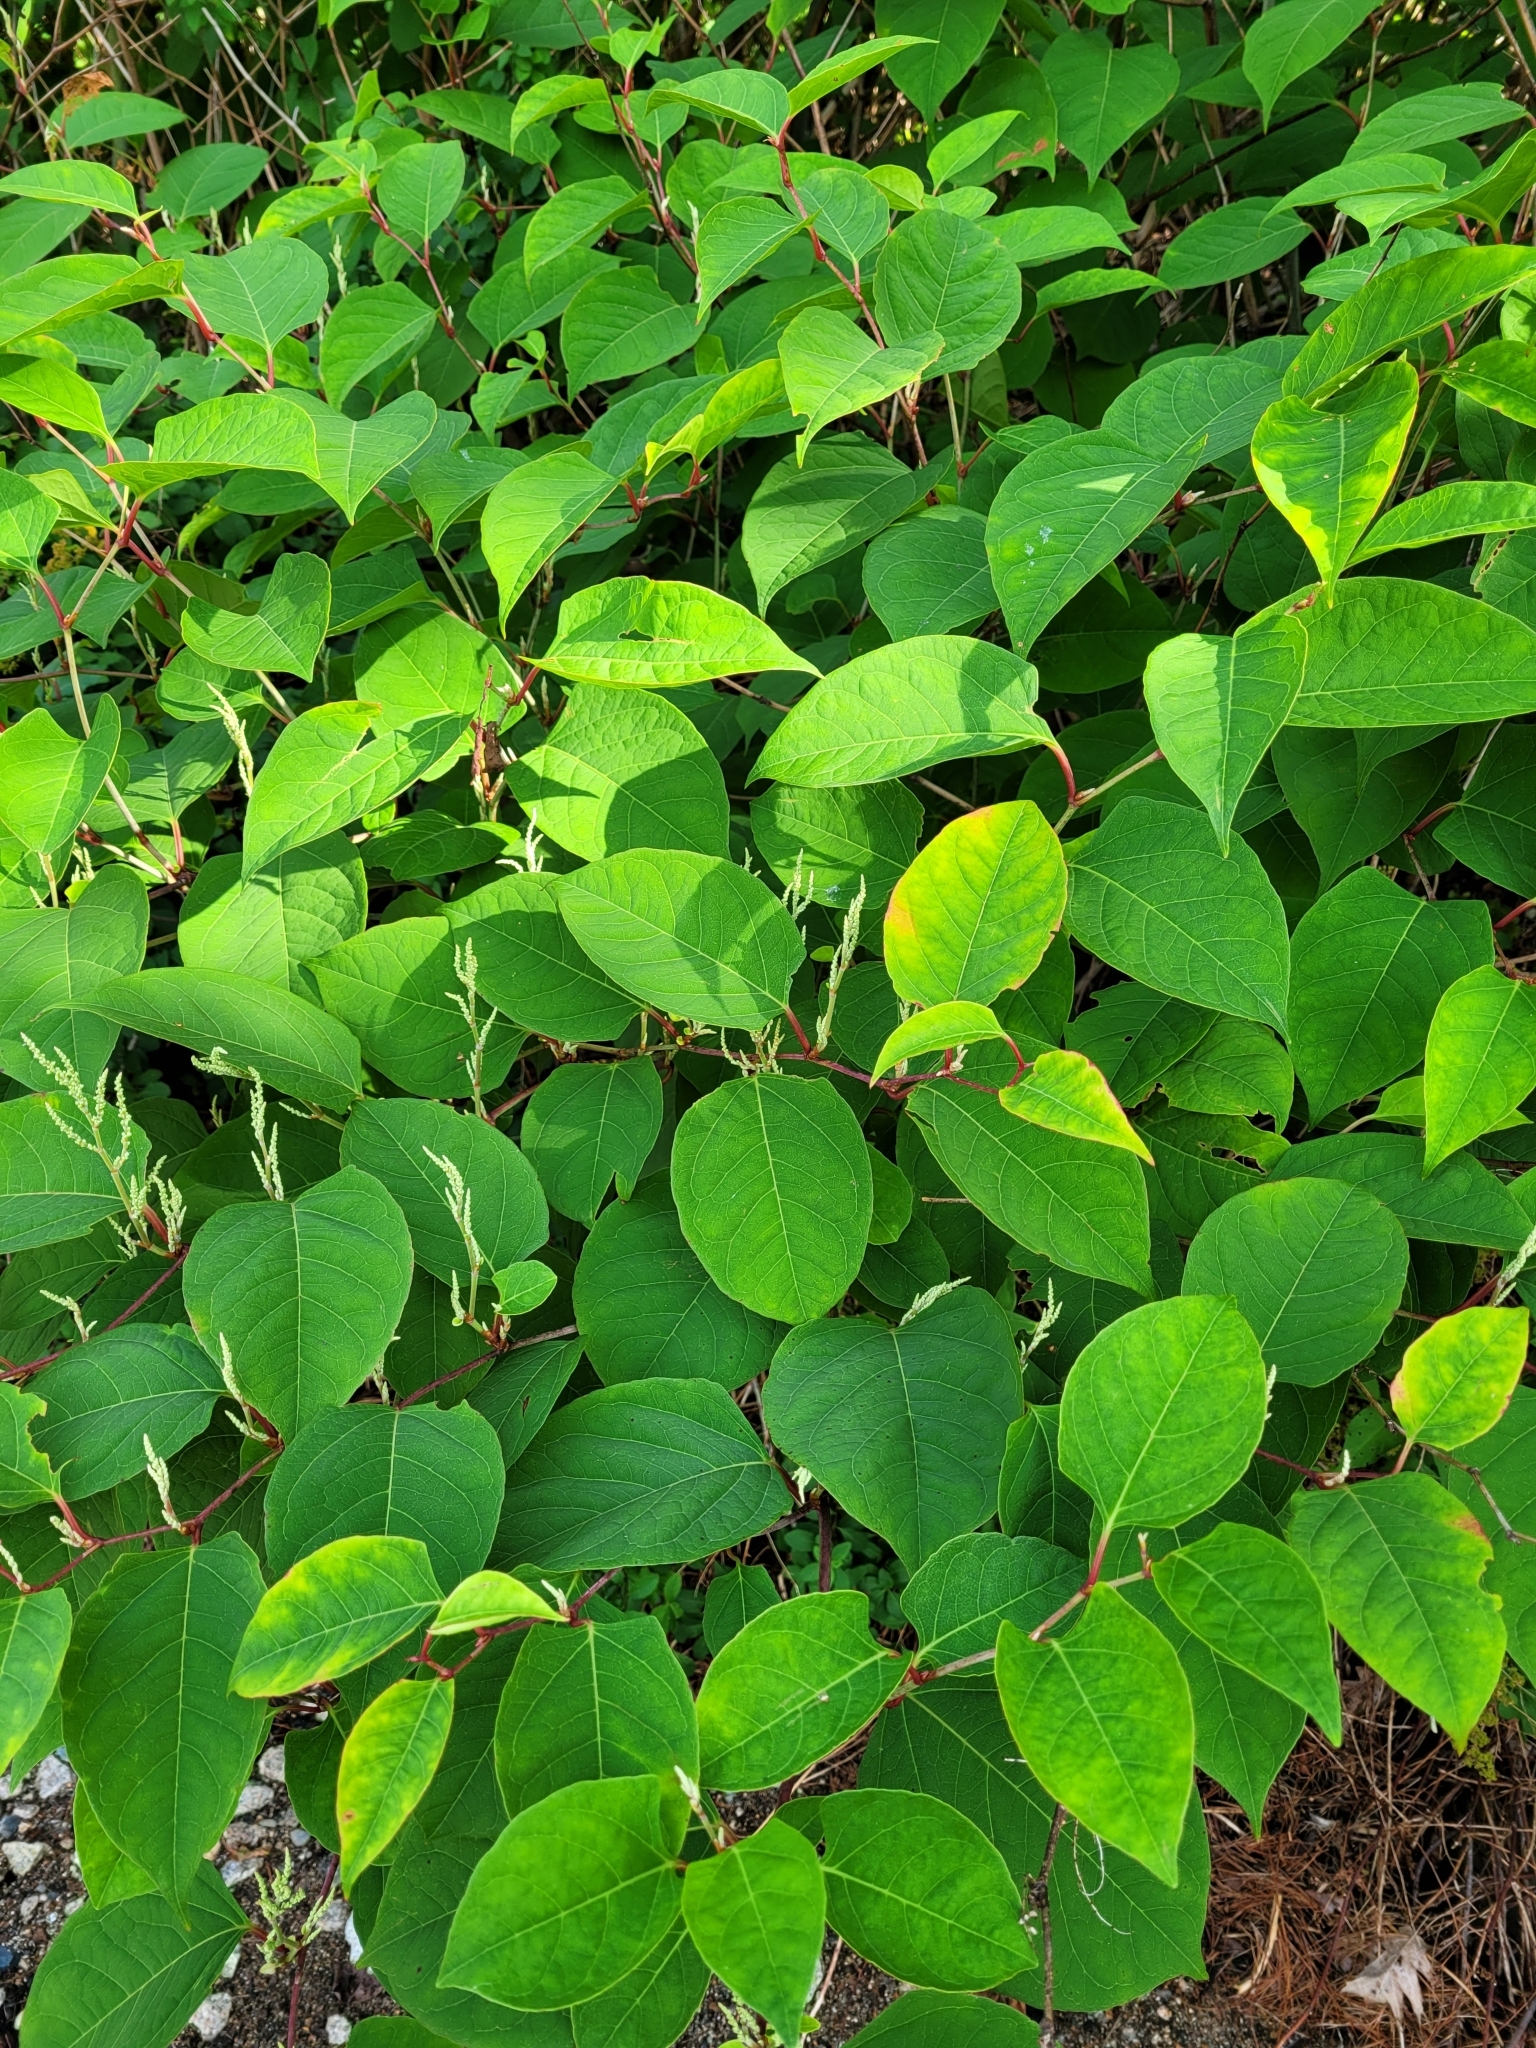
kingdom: Plantae
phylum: Tracheophyta
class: Magnoliopsida
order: Caryophyllales
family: Polygonaceae
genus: Reynoutria
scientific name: Reynoutria japonica
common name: Japanese knotweed
